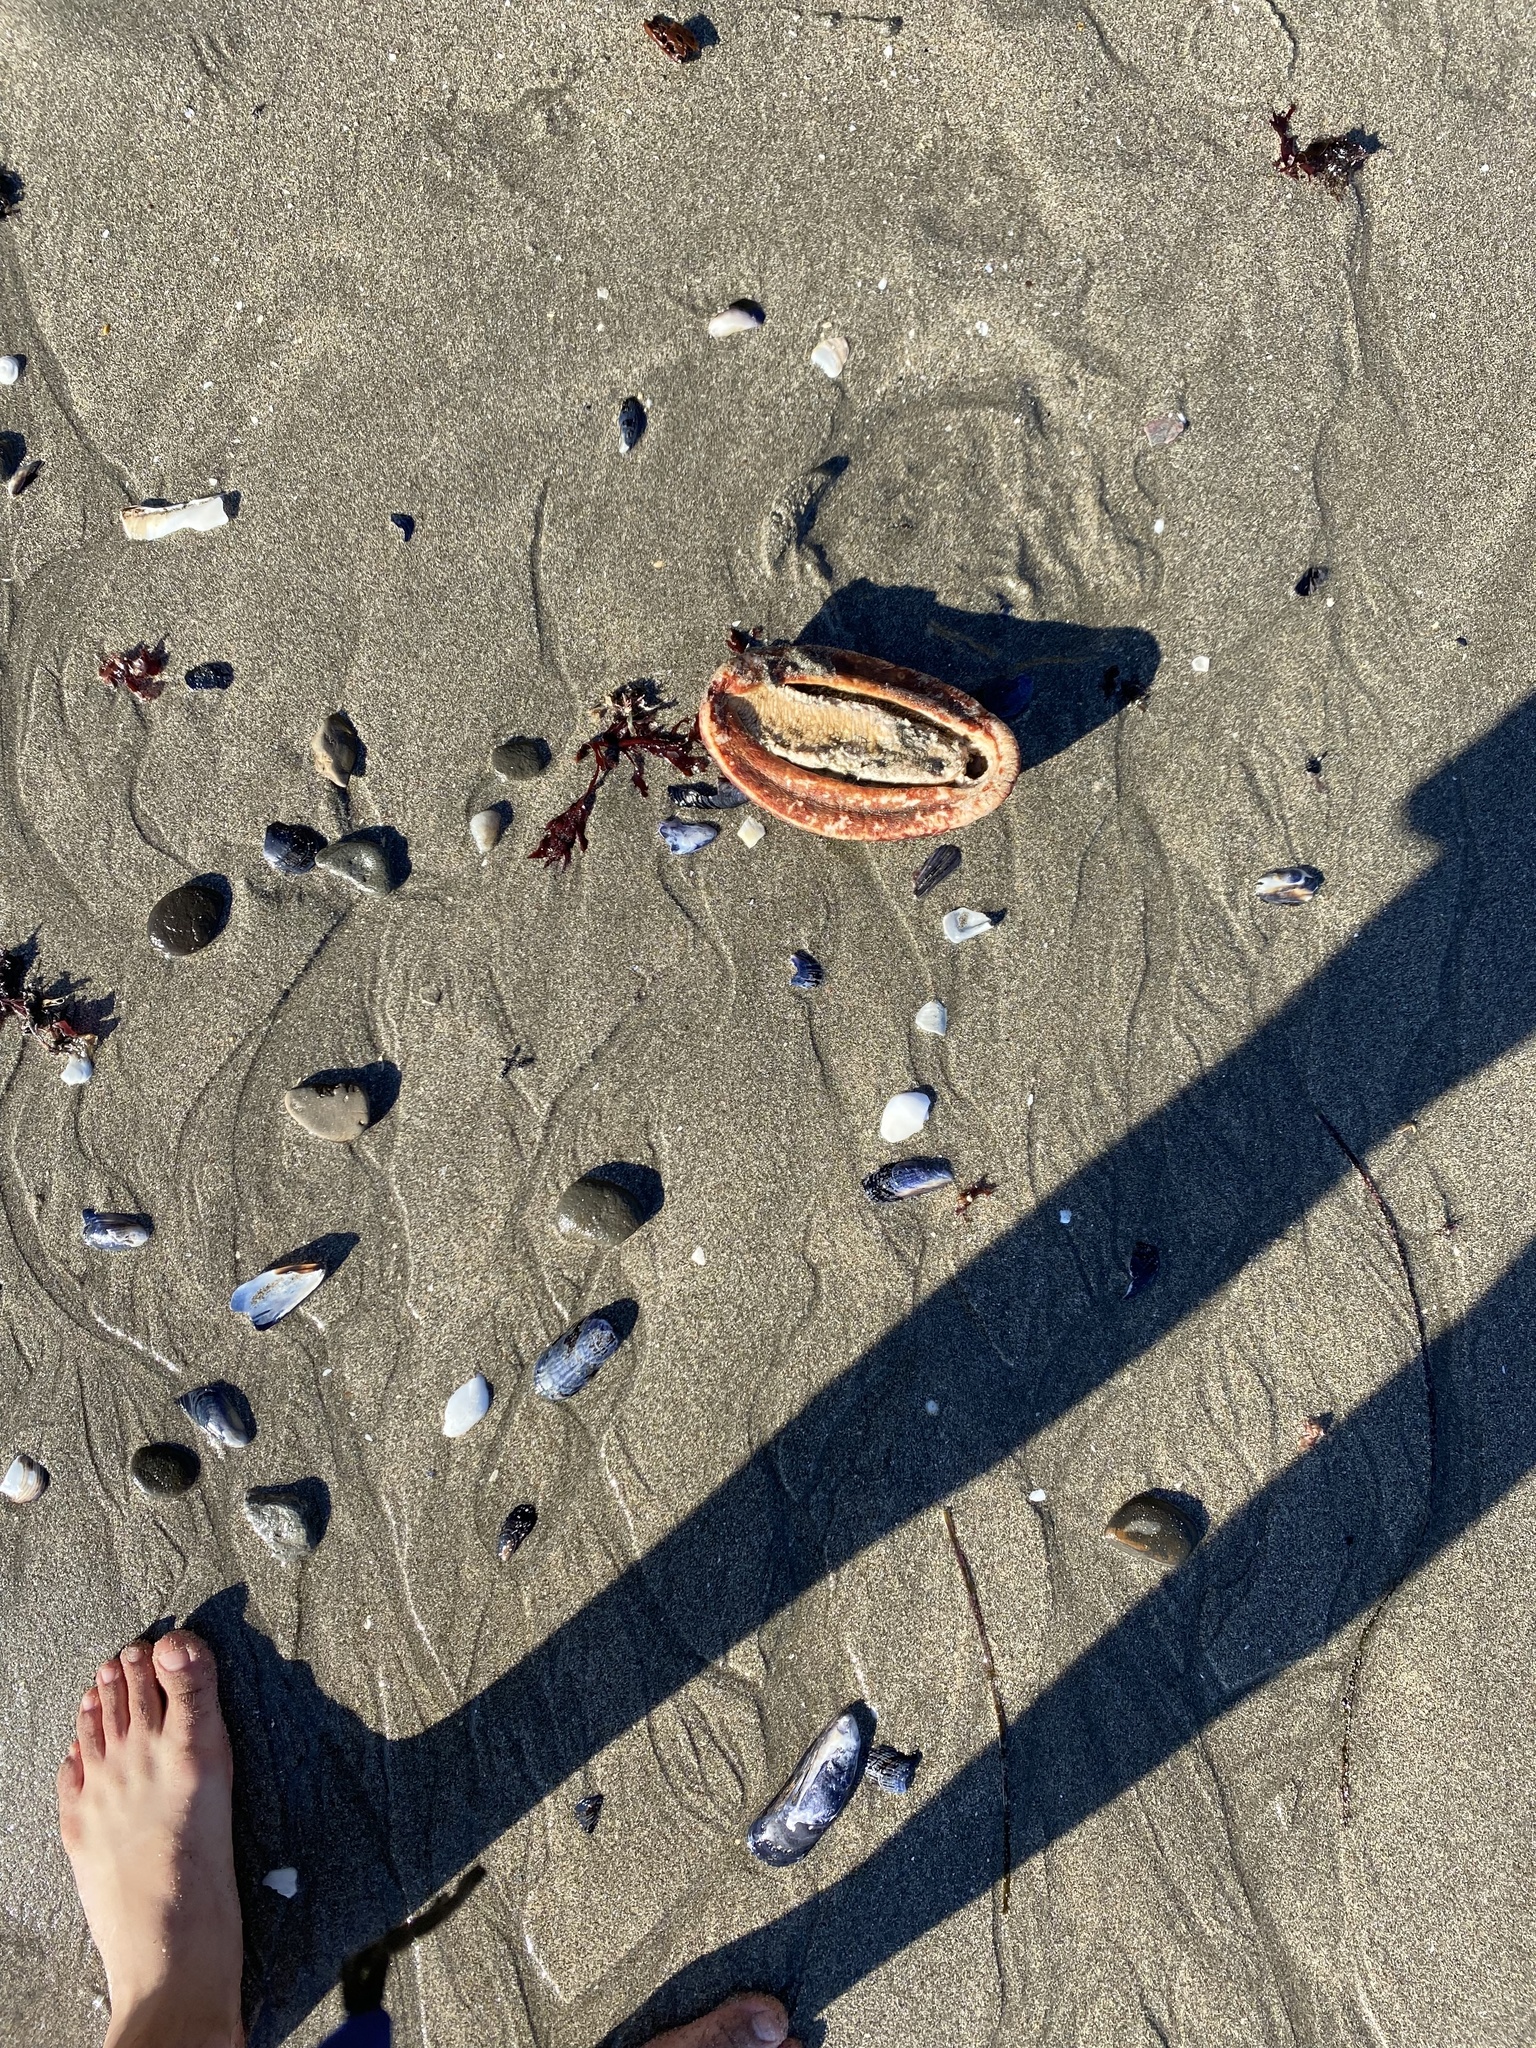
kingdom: Animalia
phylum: Mollusca
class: Polyplacophora
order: Chitonida
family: Acanthochitonidae
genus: Cryptochiton
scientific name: Cryptochiton stelleri
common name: Giant pacific chiton
